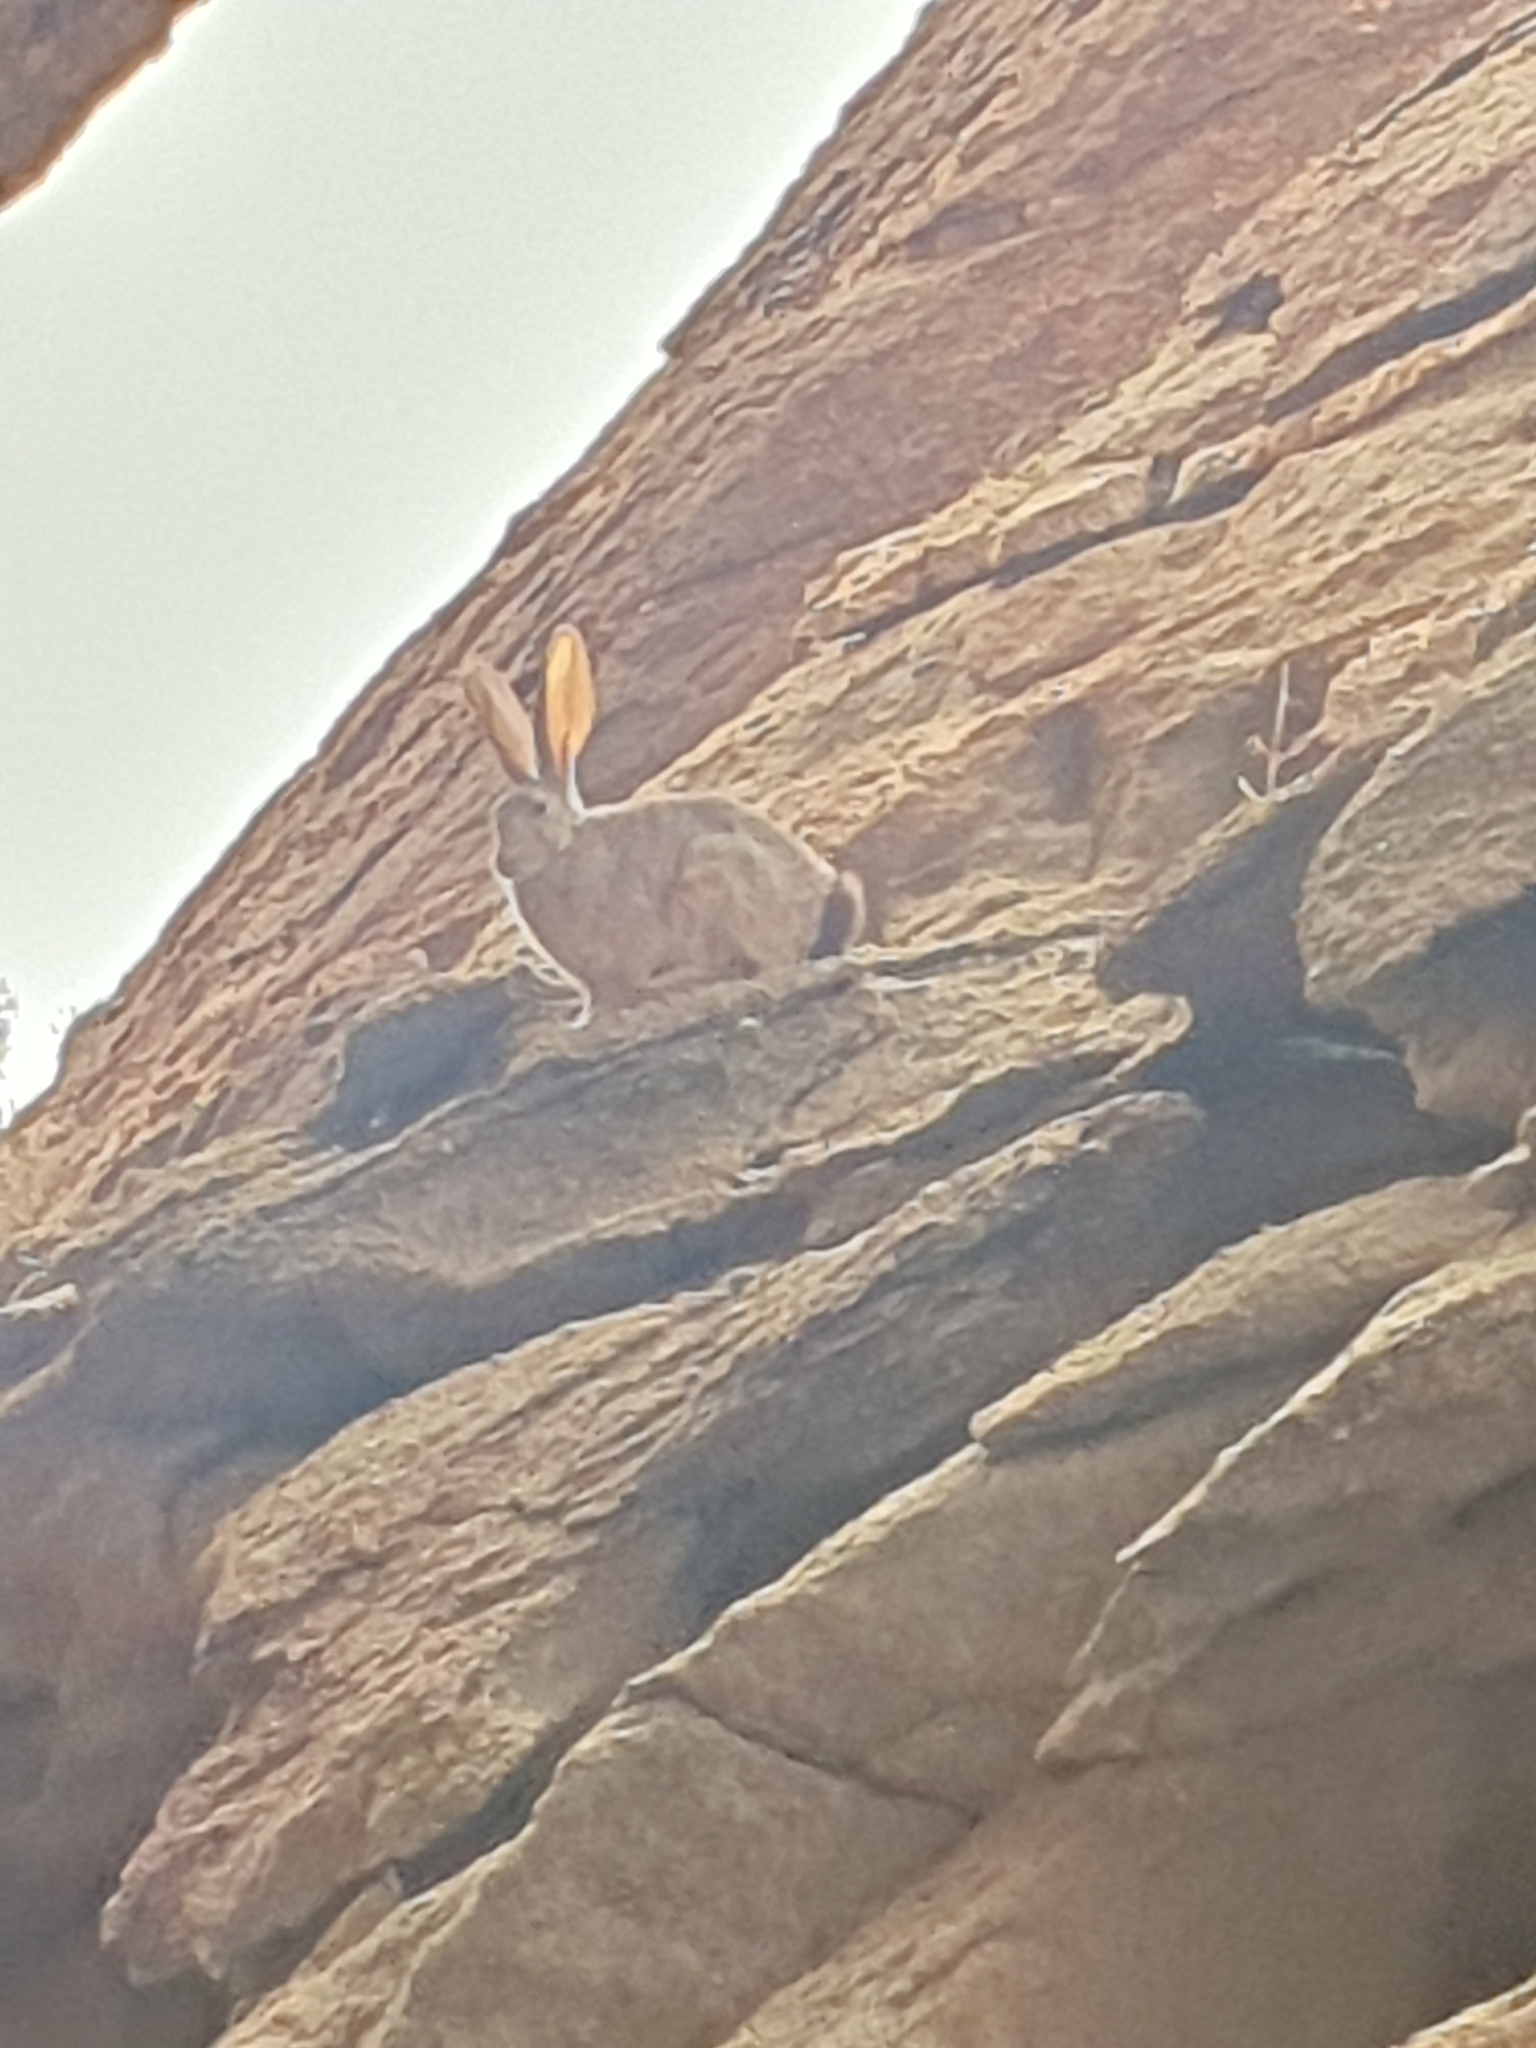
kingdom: Animalia
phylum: Chordata
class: Mammalia
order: Lagomorpha
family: Leporidae
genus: Pronolagus
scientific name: Pronolagus randensis
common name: Jameson's red rock hare
